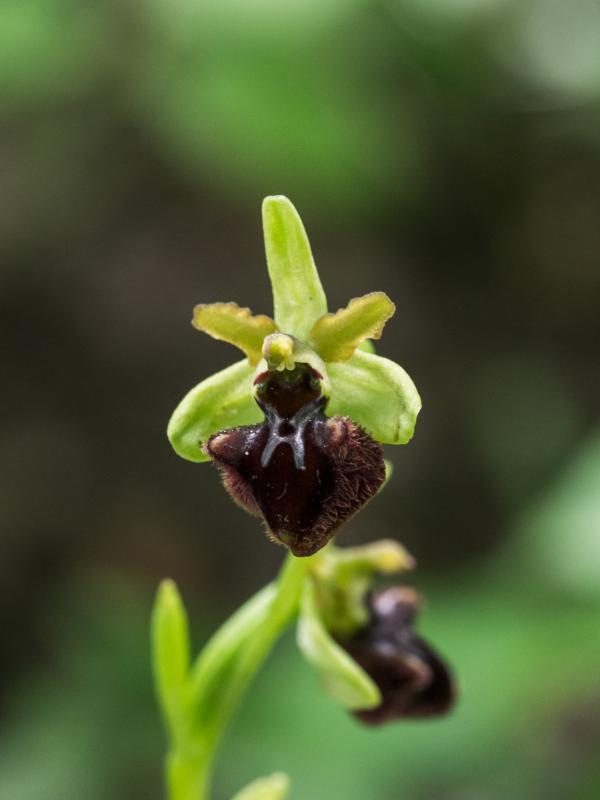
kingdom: Plantae
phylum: Tracheophyta
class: Liliopsida
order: Asparagales
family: Orchidaceae
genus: Ophrys
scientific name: Ophrys sphegodes
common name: Early spider-orchid
